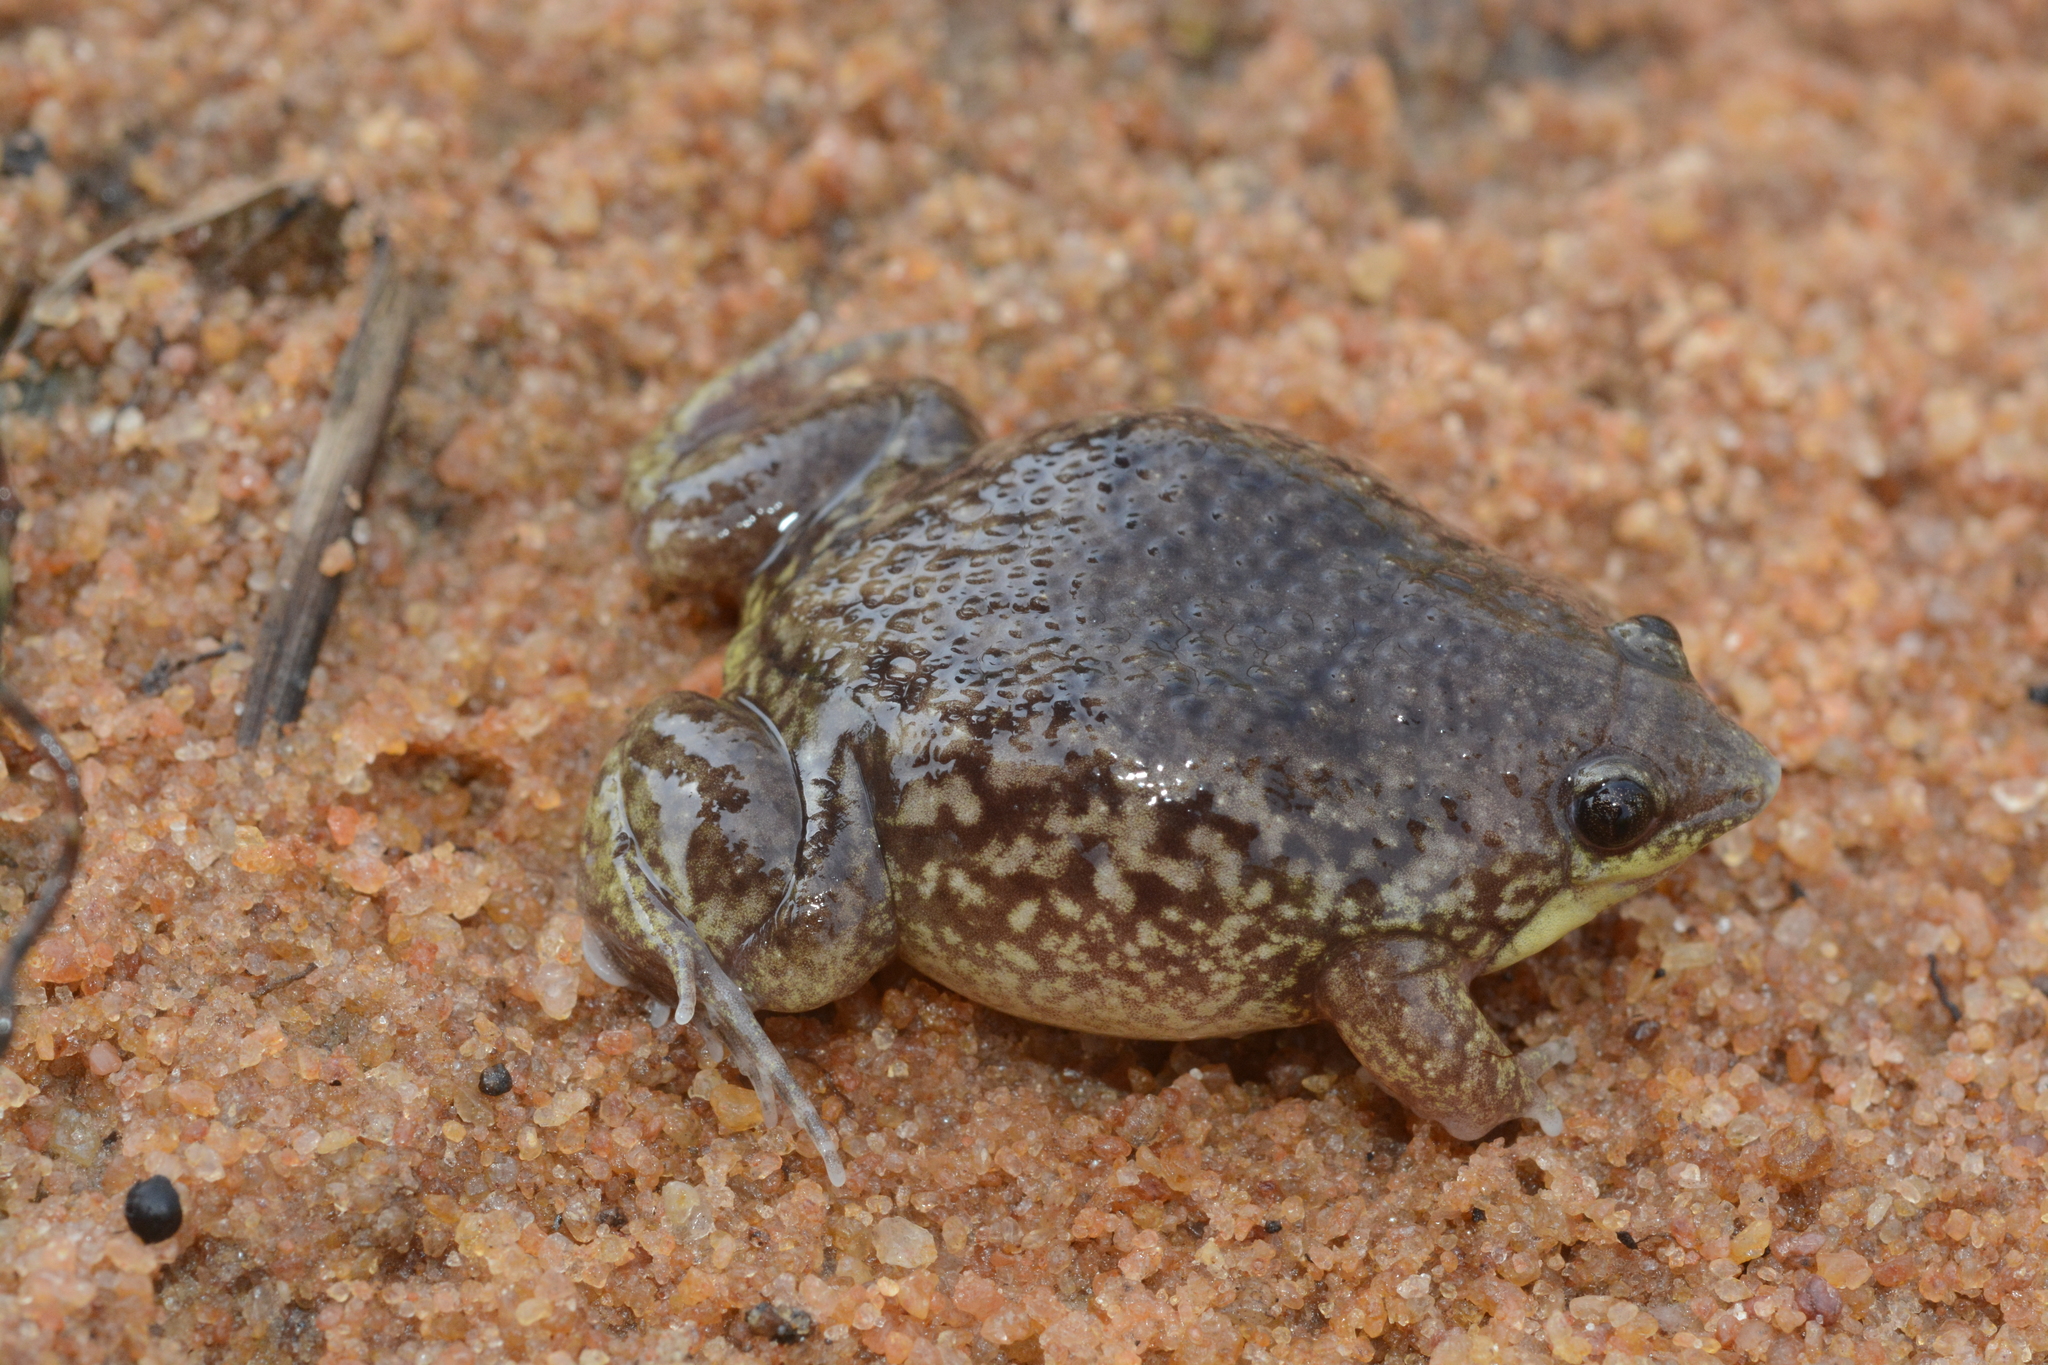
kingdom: Animalia
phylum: Chordata
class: Amphibia
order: Anura
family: Hemisotidae
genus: Hemisus
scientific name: Hemisus marmoratus
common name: Mottled shovel-nosed frog
